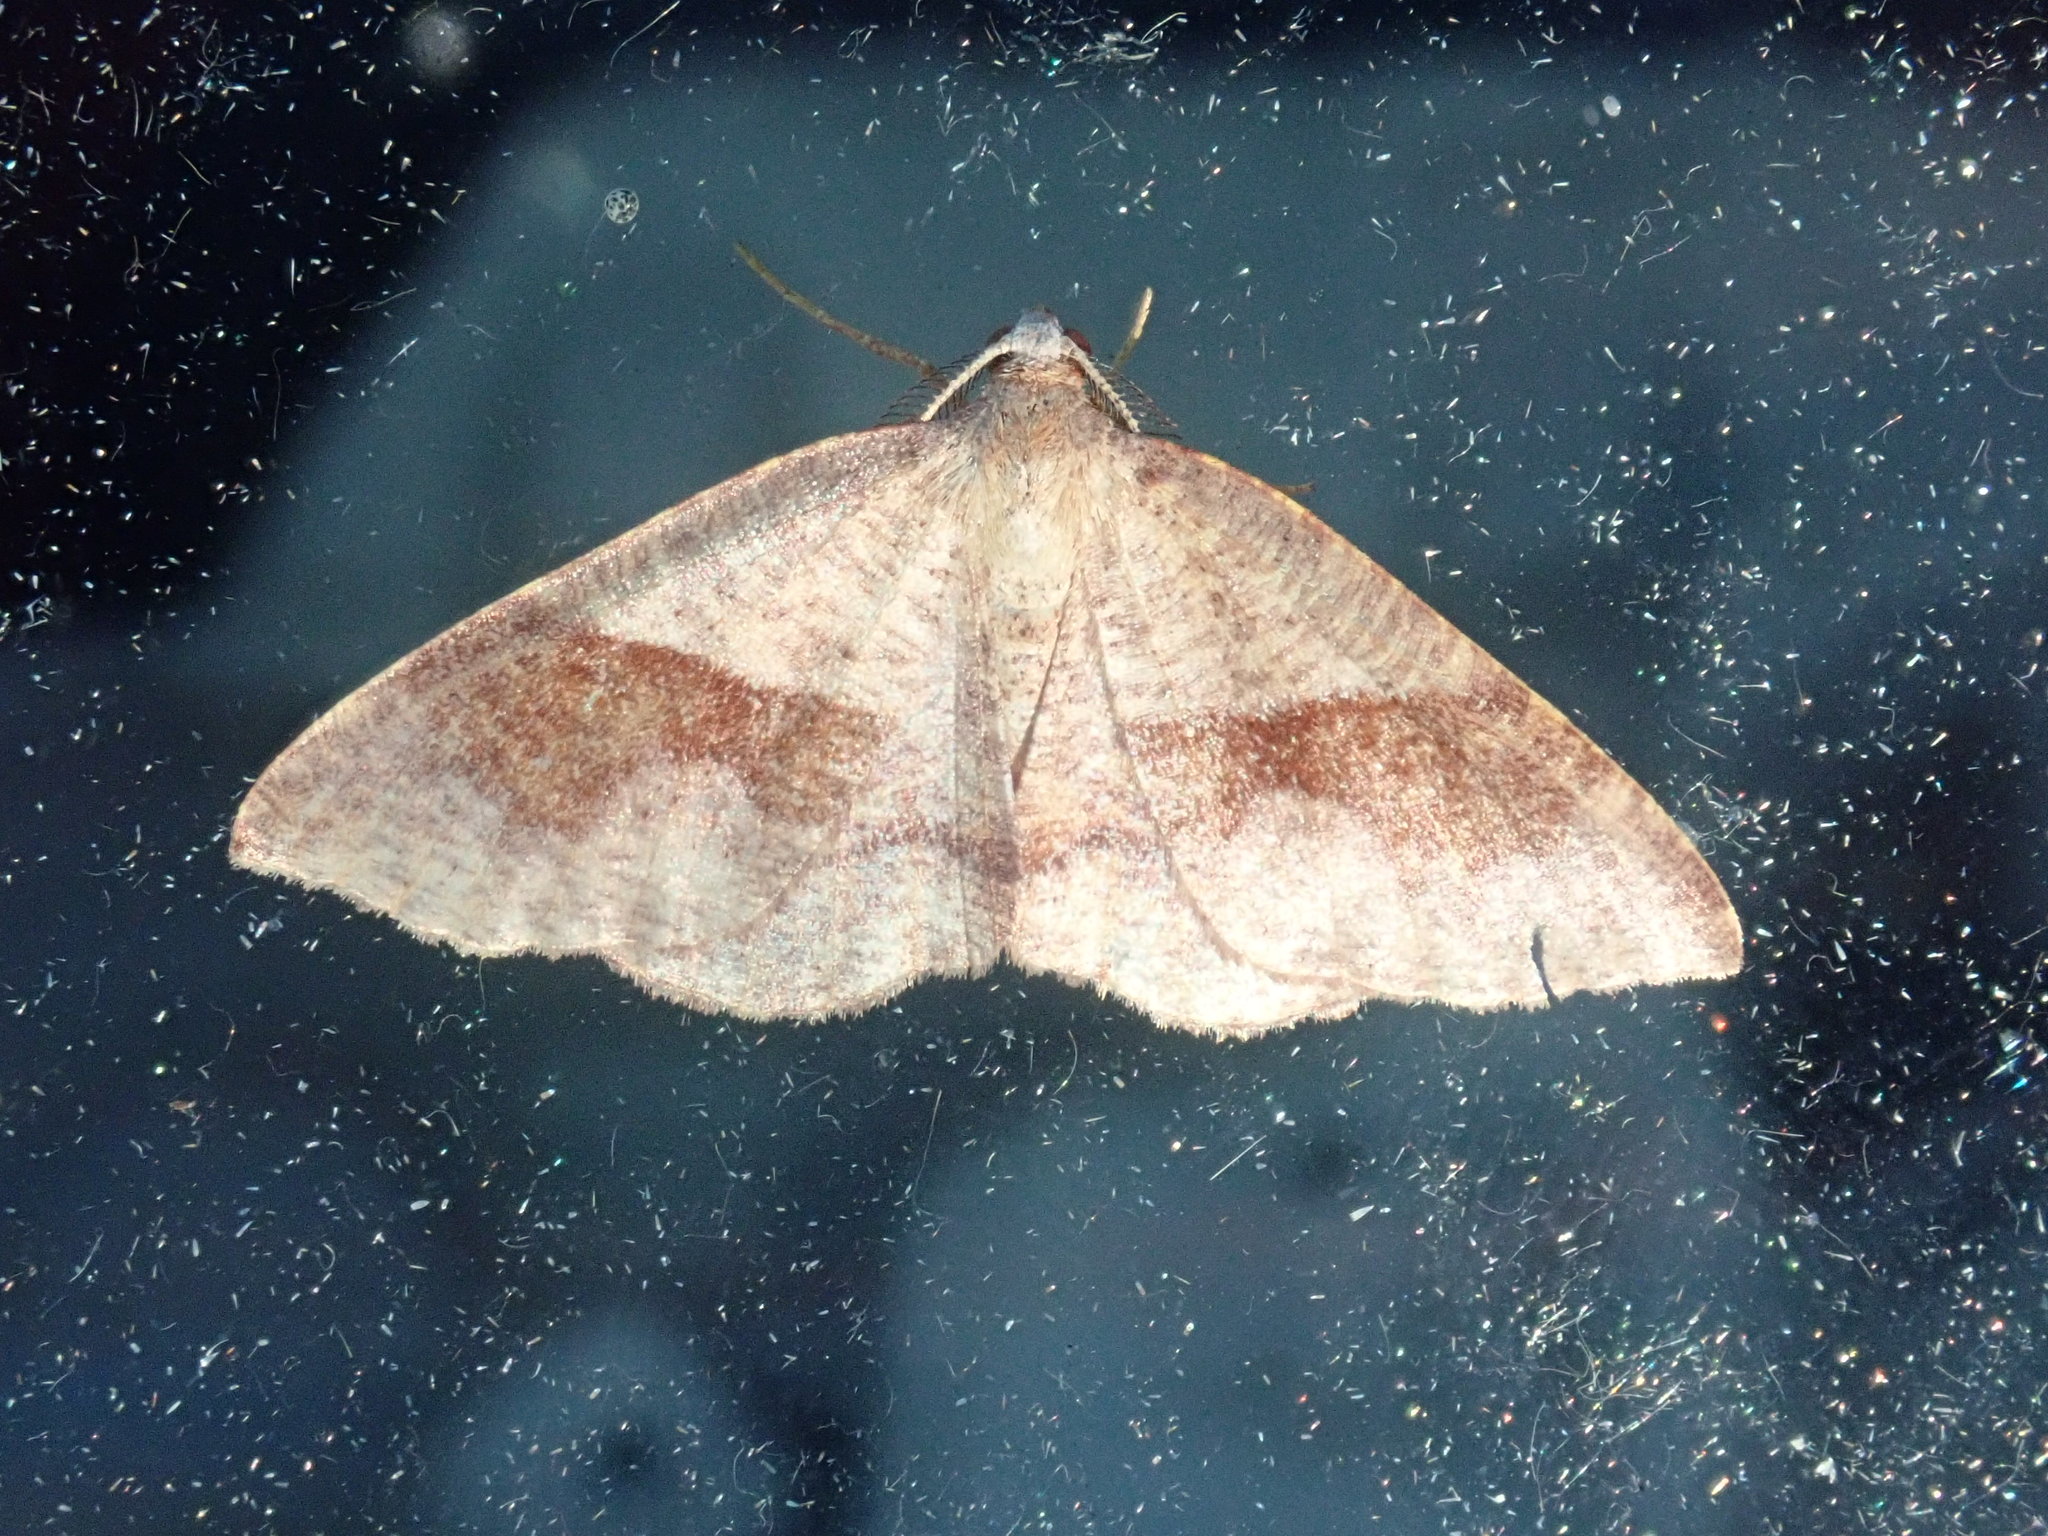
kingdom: Animalia
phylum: Arthropoda
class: Insecta
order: Lepidoptera
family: Geometridae
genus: Plagodis
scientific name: Plagodis pulveraria
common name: Barred umber
